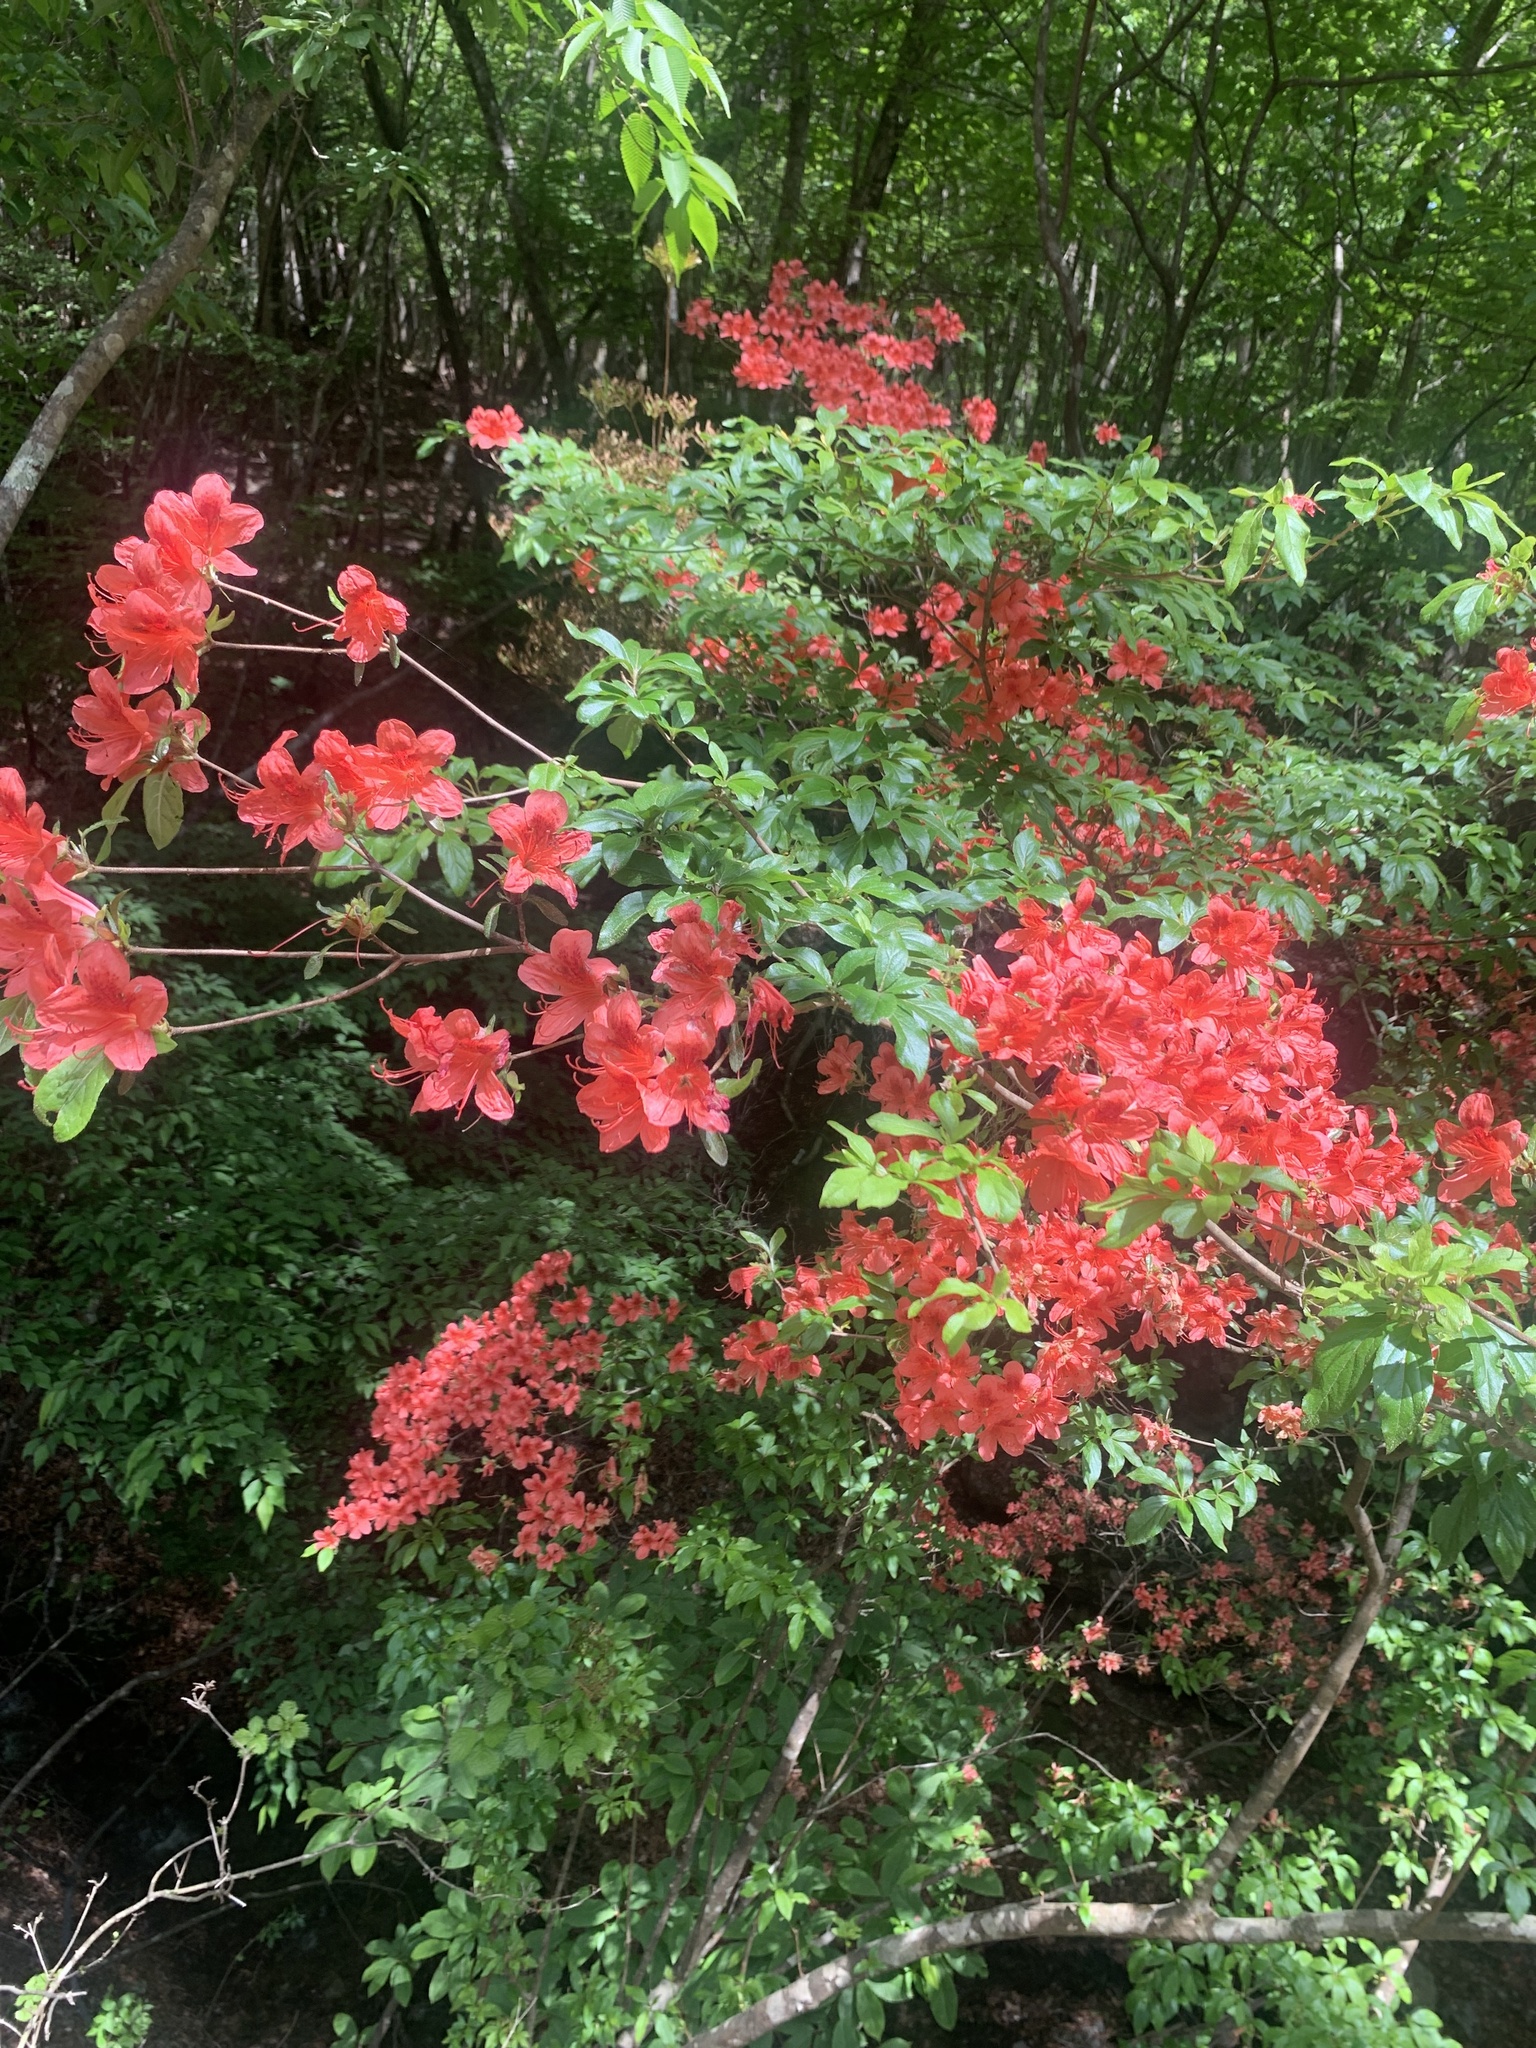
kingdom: Plantae
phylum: Tracheophyta
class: Magnoliopsida
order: Ericales
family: Ericaceae
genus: Rhododendron
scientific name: Rhododendron kaempferi
